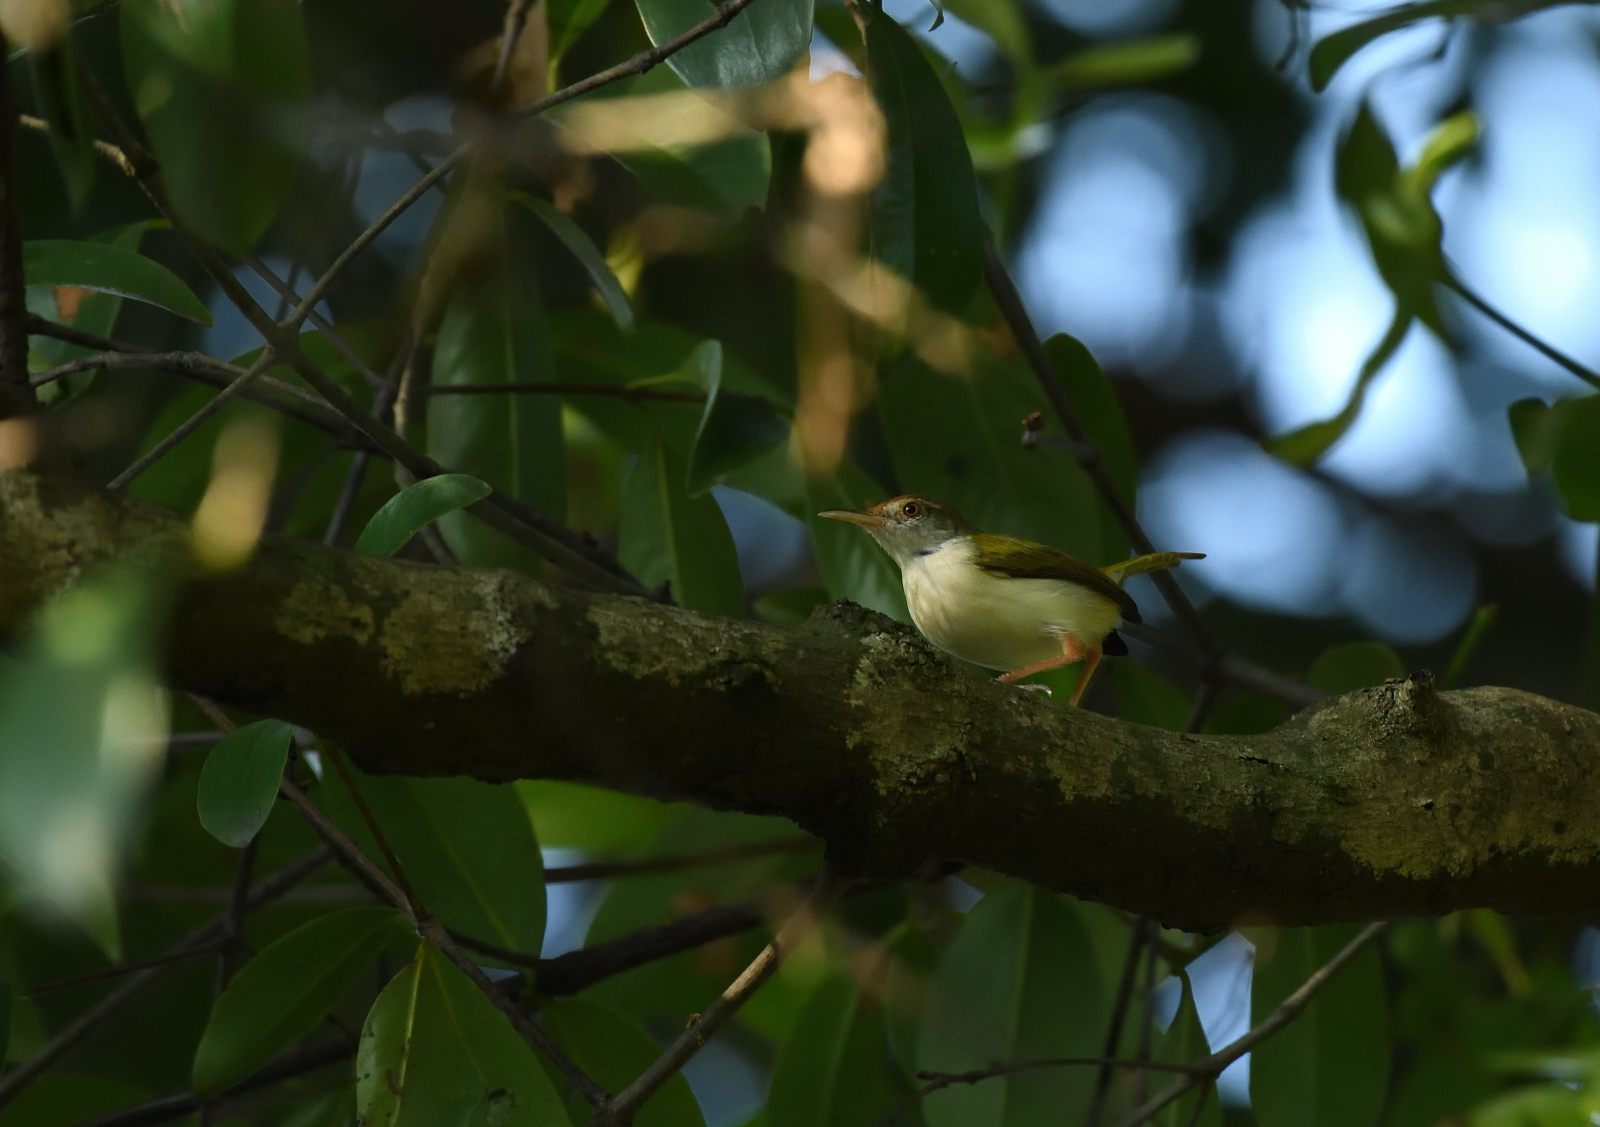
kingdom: Animalia
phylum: Chordata
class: Aves
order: Passeriformes
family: Cisticolidae
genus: Orthotomus
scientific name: Orthotomus sutorius
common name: Common tailorbird
